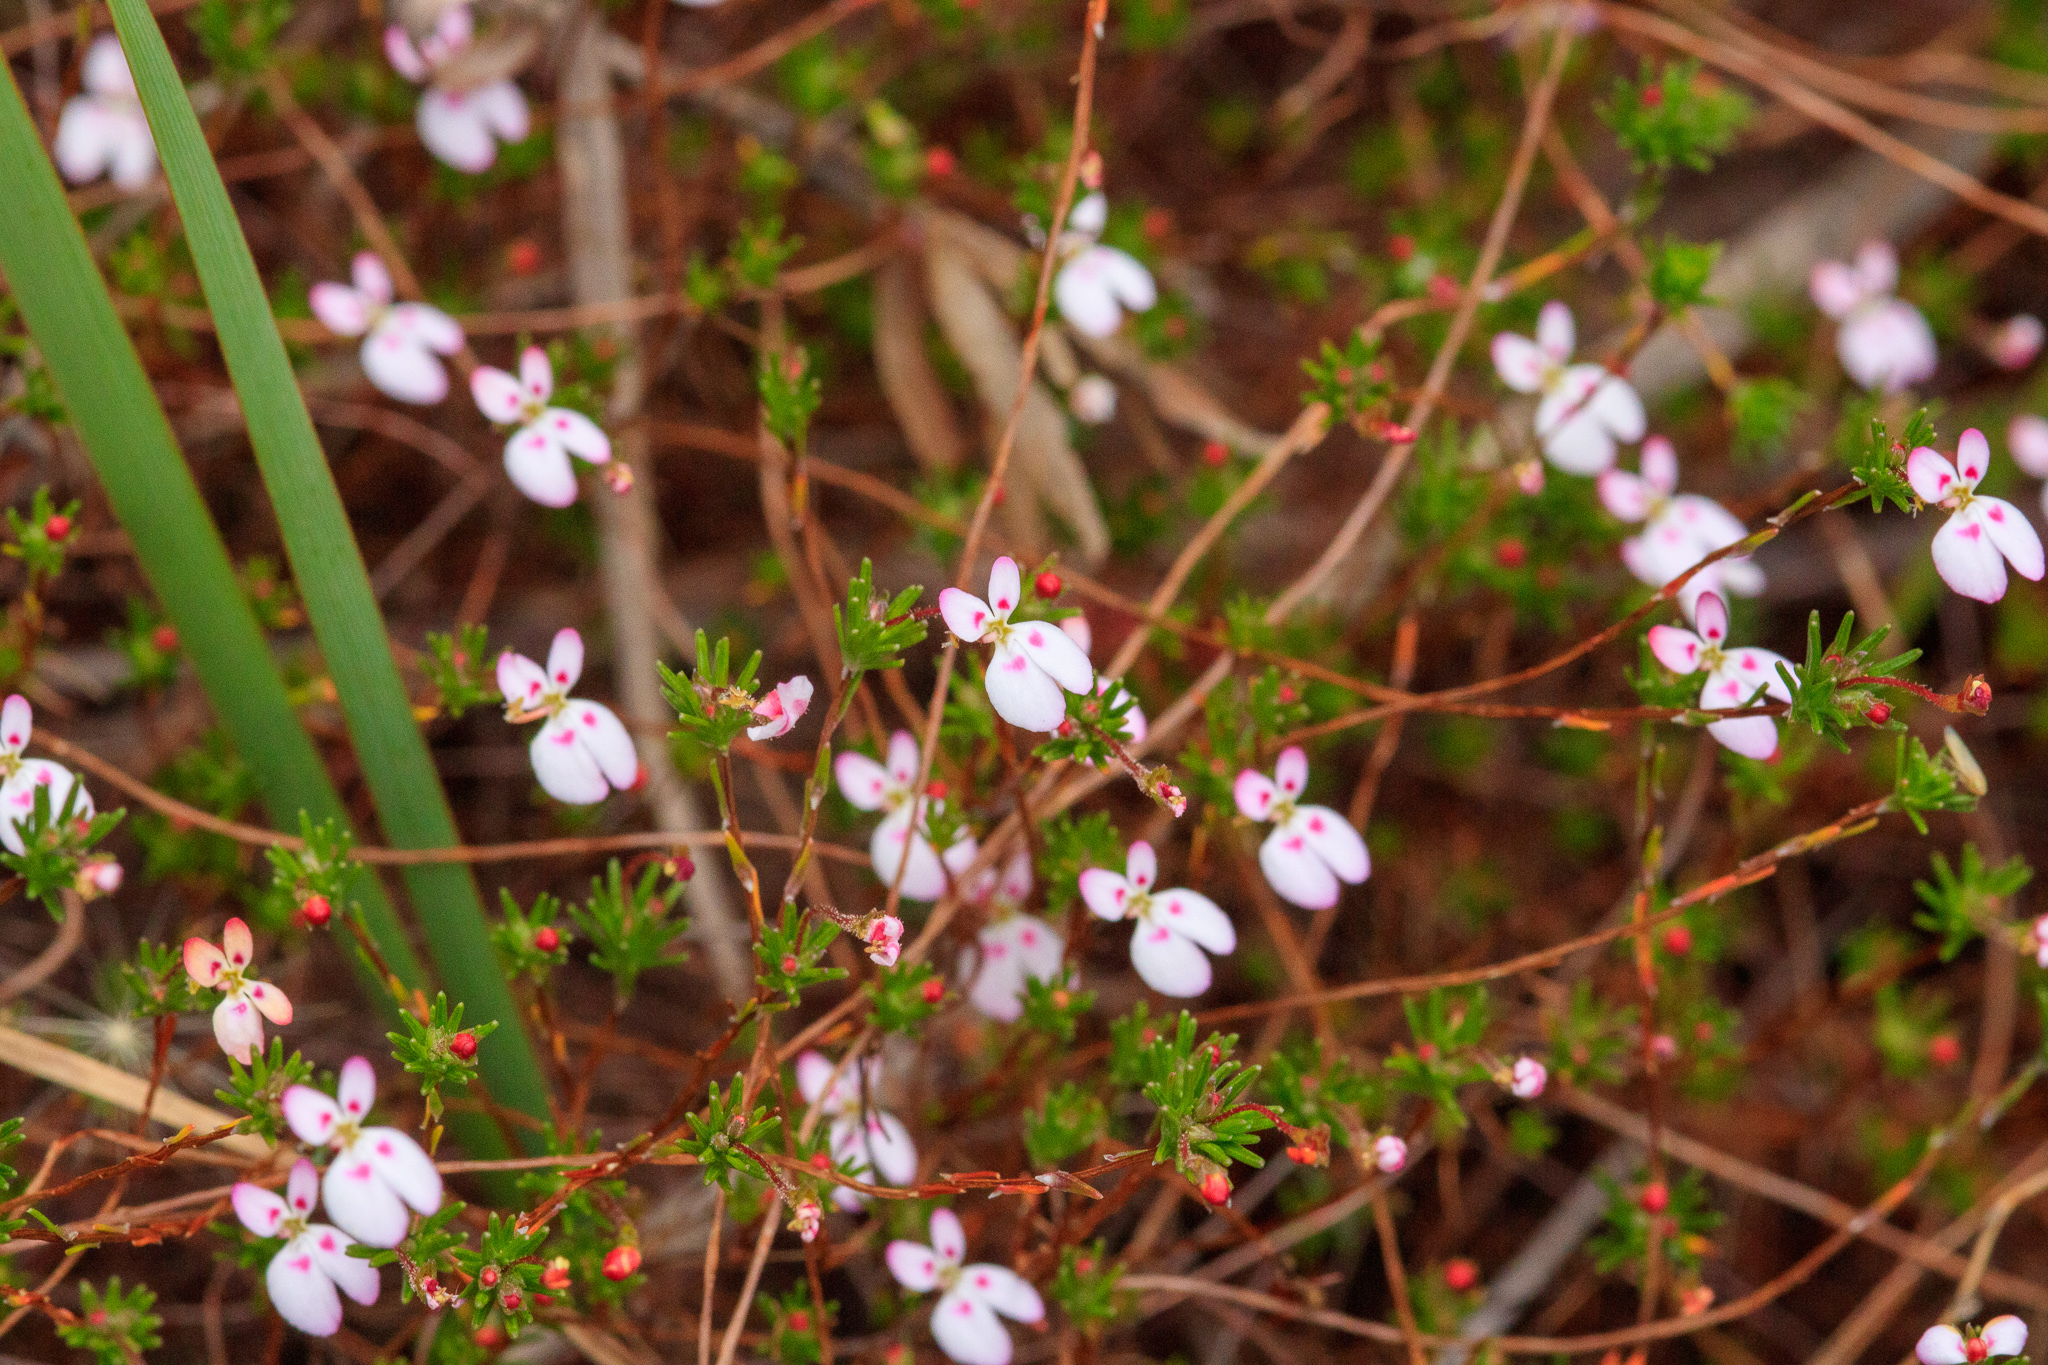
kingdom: Plantae
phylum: Tracheophyta
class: Magnoliopsida
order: Asterales
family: Stylidiaceae
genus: Stylidium
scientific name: Stylidium repens
